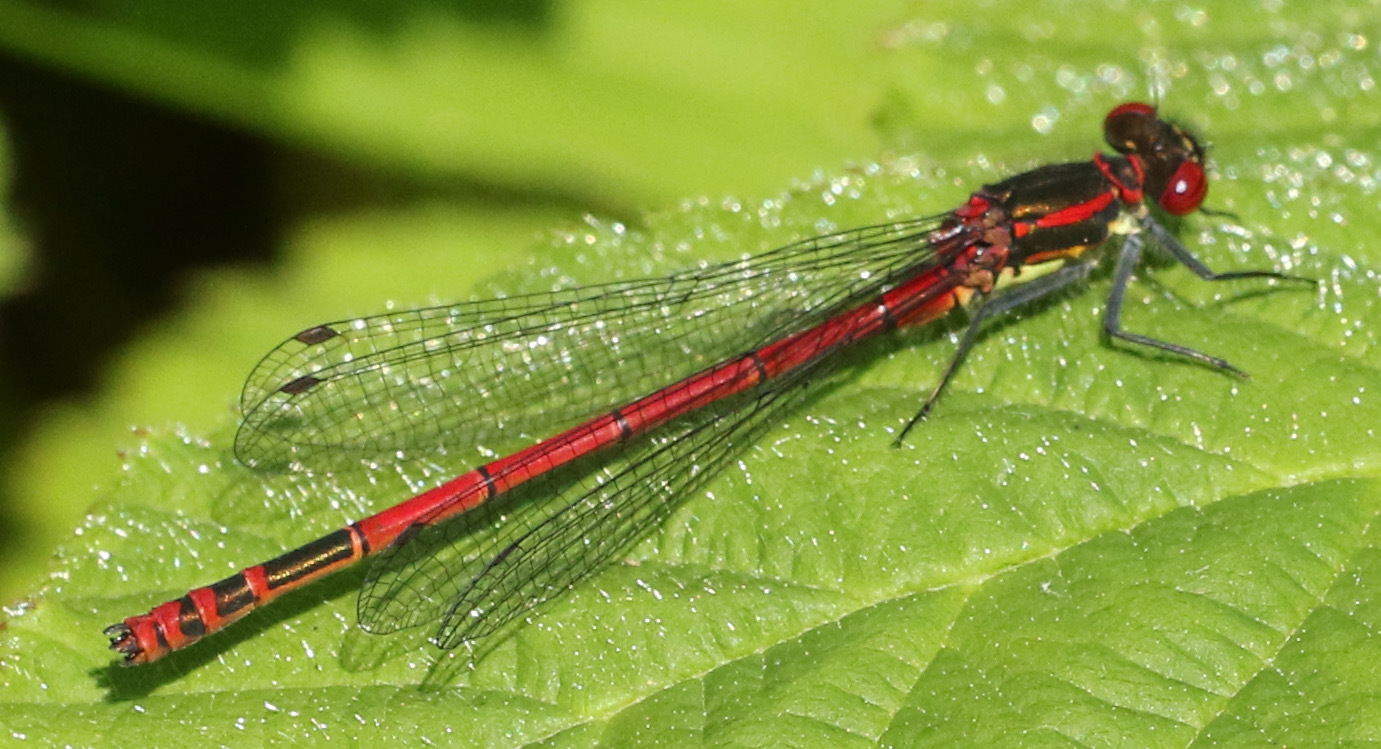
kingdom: Animalia
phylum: Arthropoda
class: Insecta
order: Odonata
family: Coenagrionidae
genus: Pyrrhosoma
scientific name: Pyrrhosoma nymphula
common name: Large red damsel
